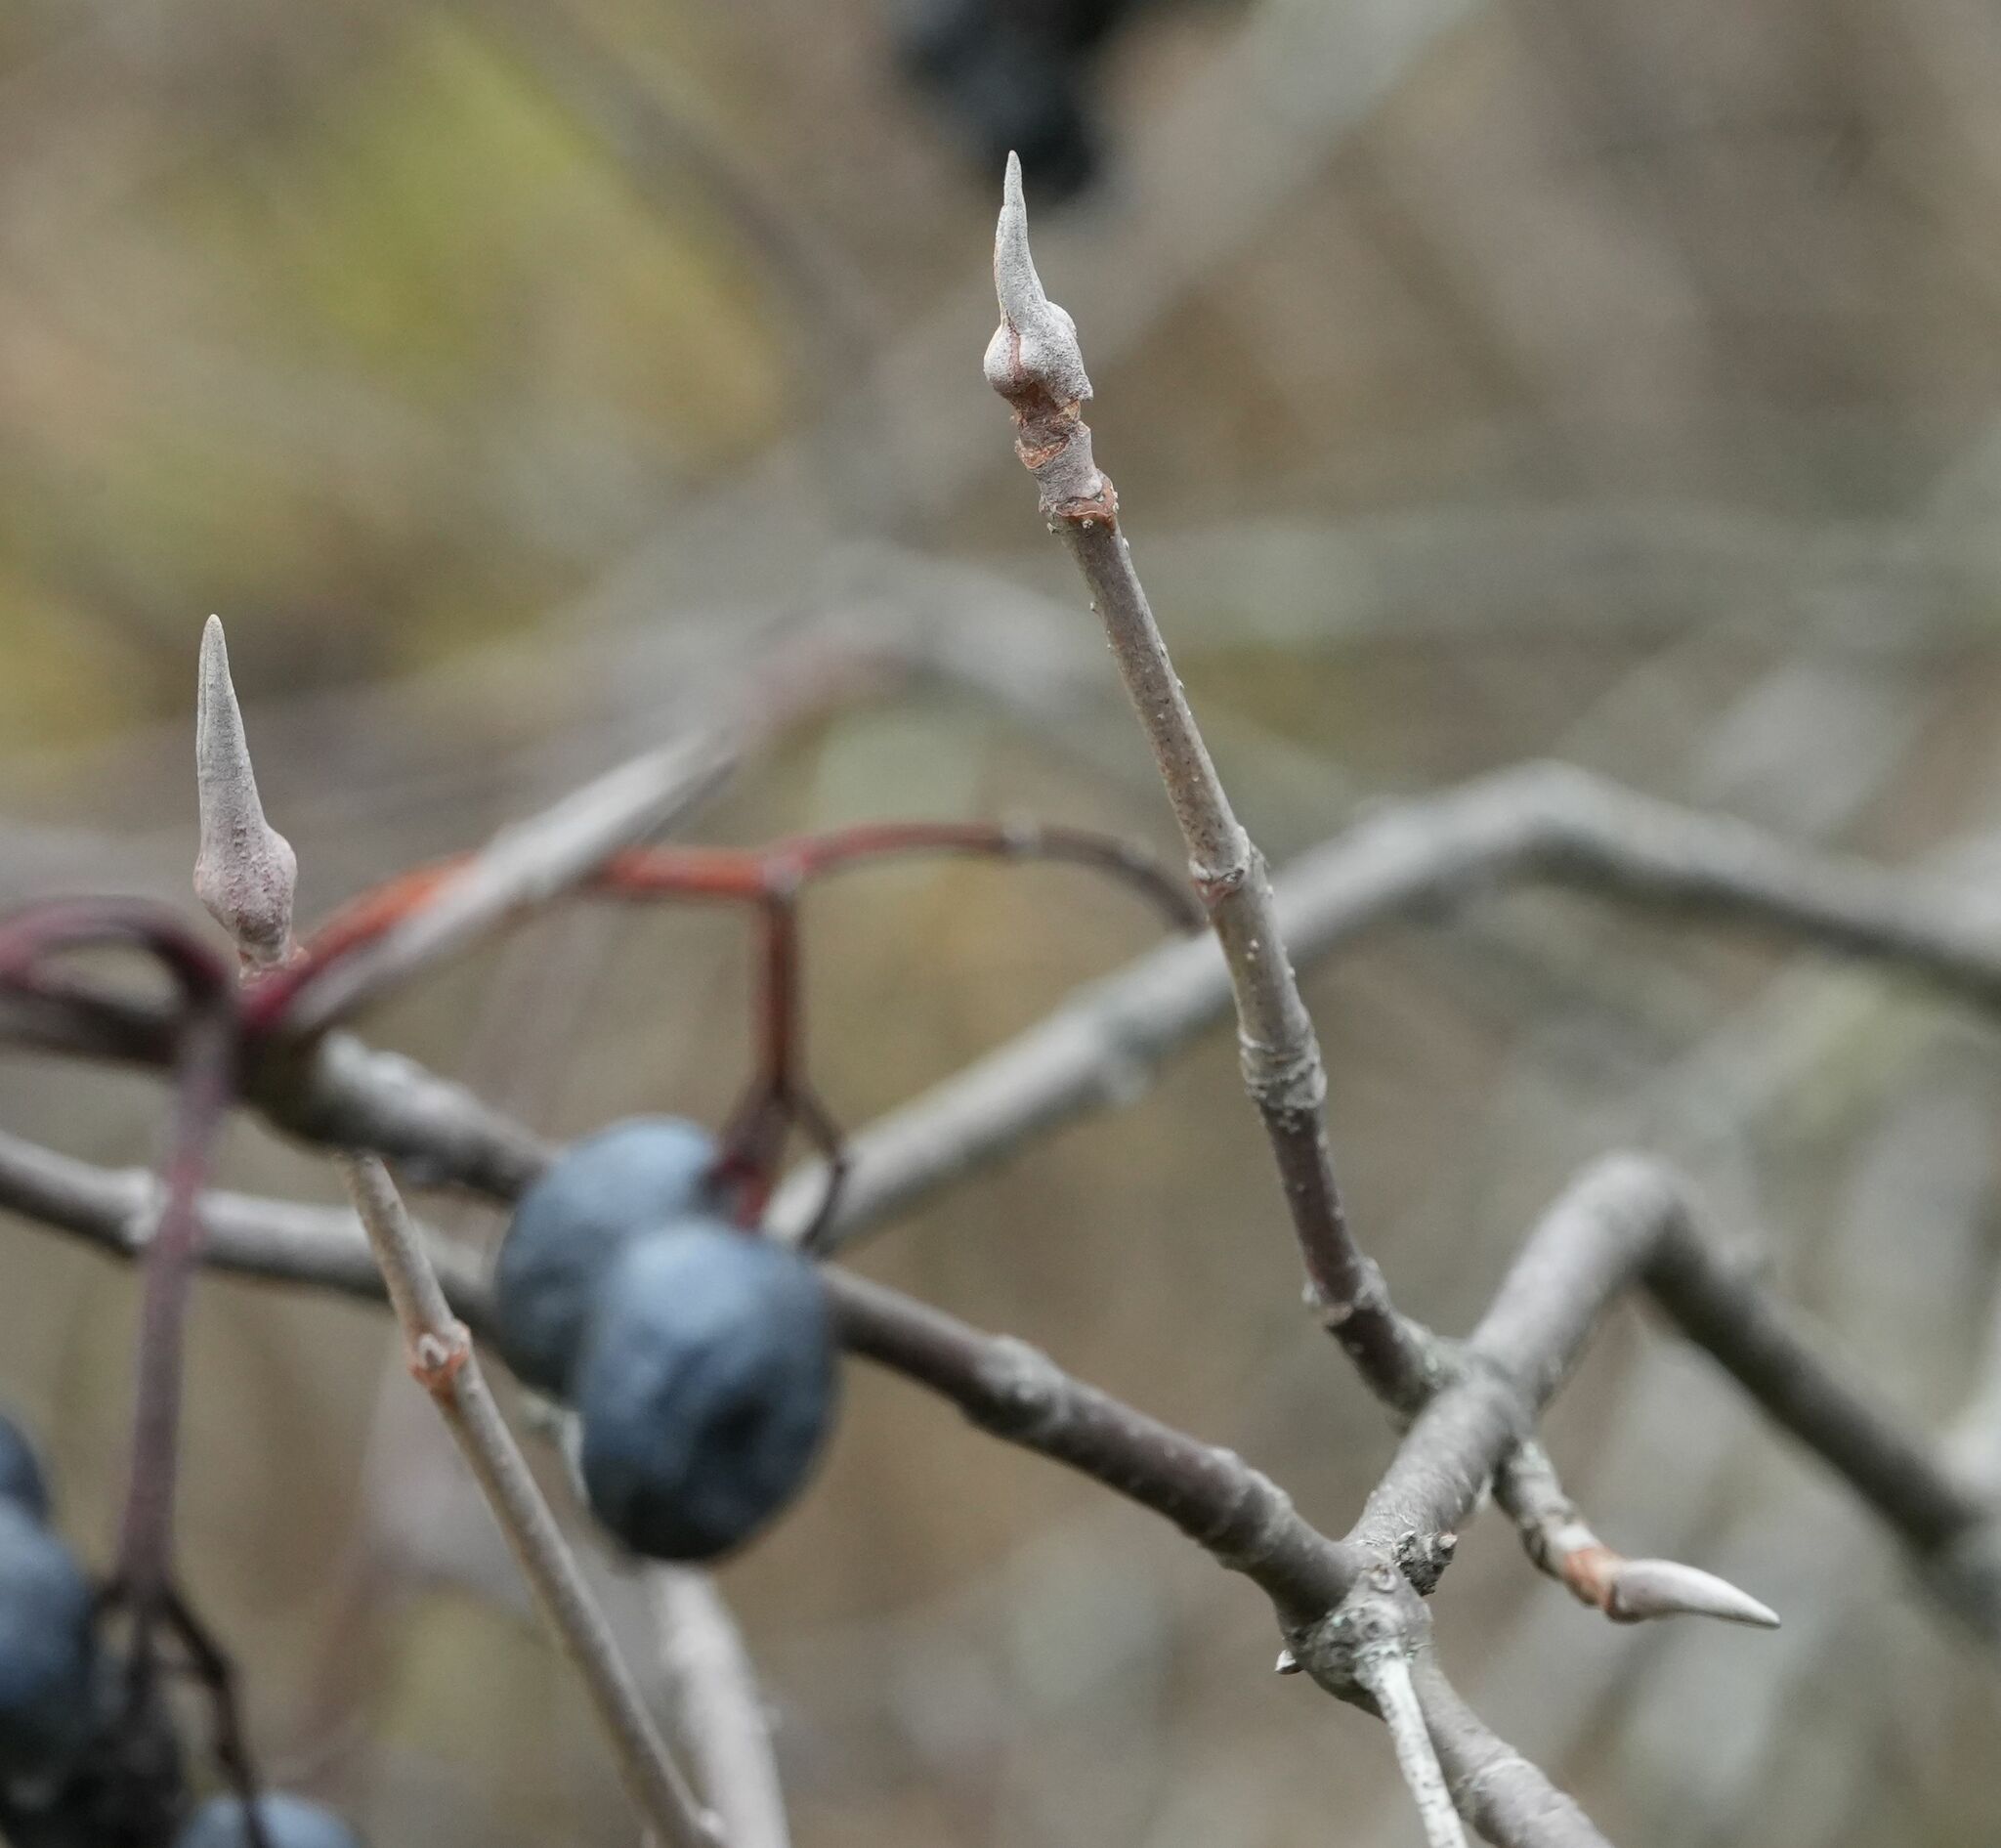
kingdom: Plantae
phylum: Tracheophyta
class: Magnoliopsida
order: Dipsacales
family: Viburnaceae
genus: Viburnum
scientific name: Viburnum lentago
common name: Black haw
